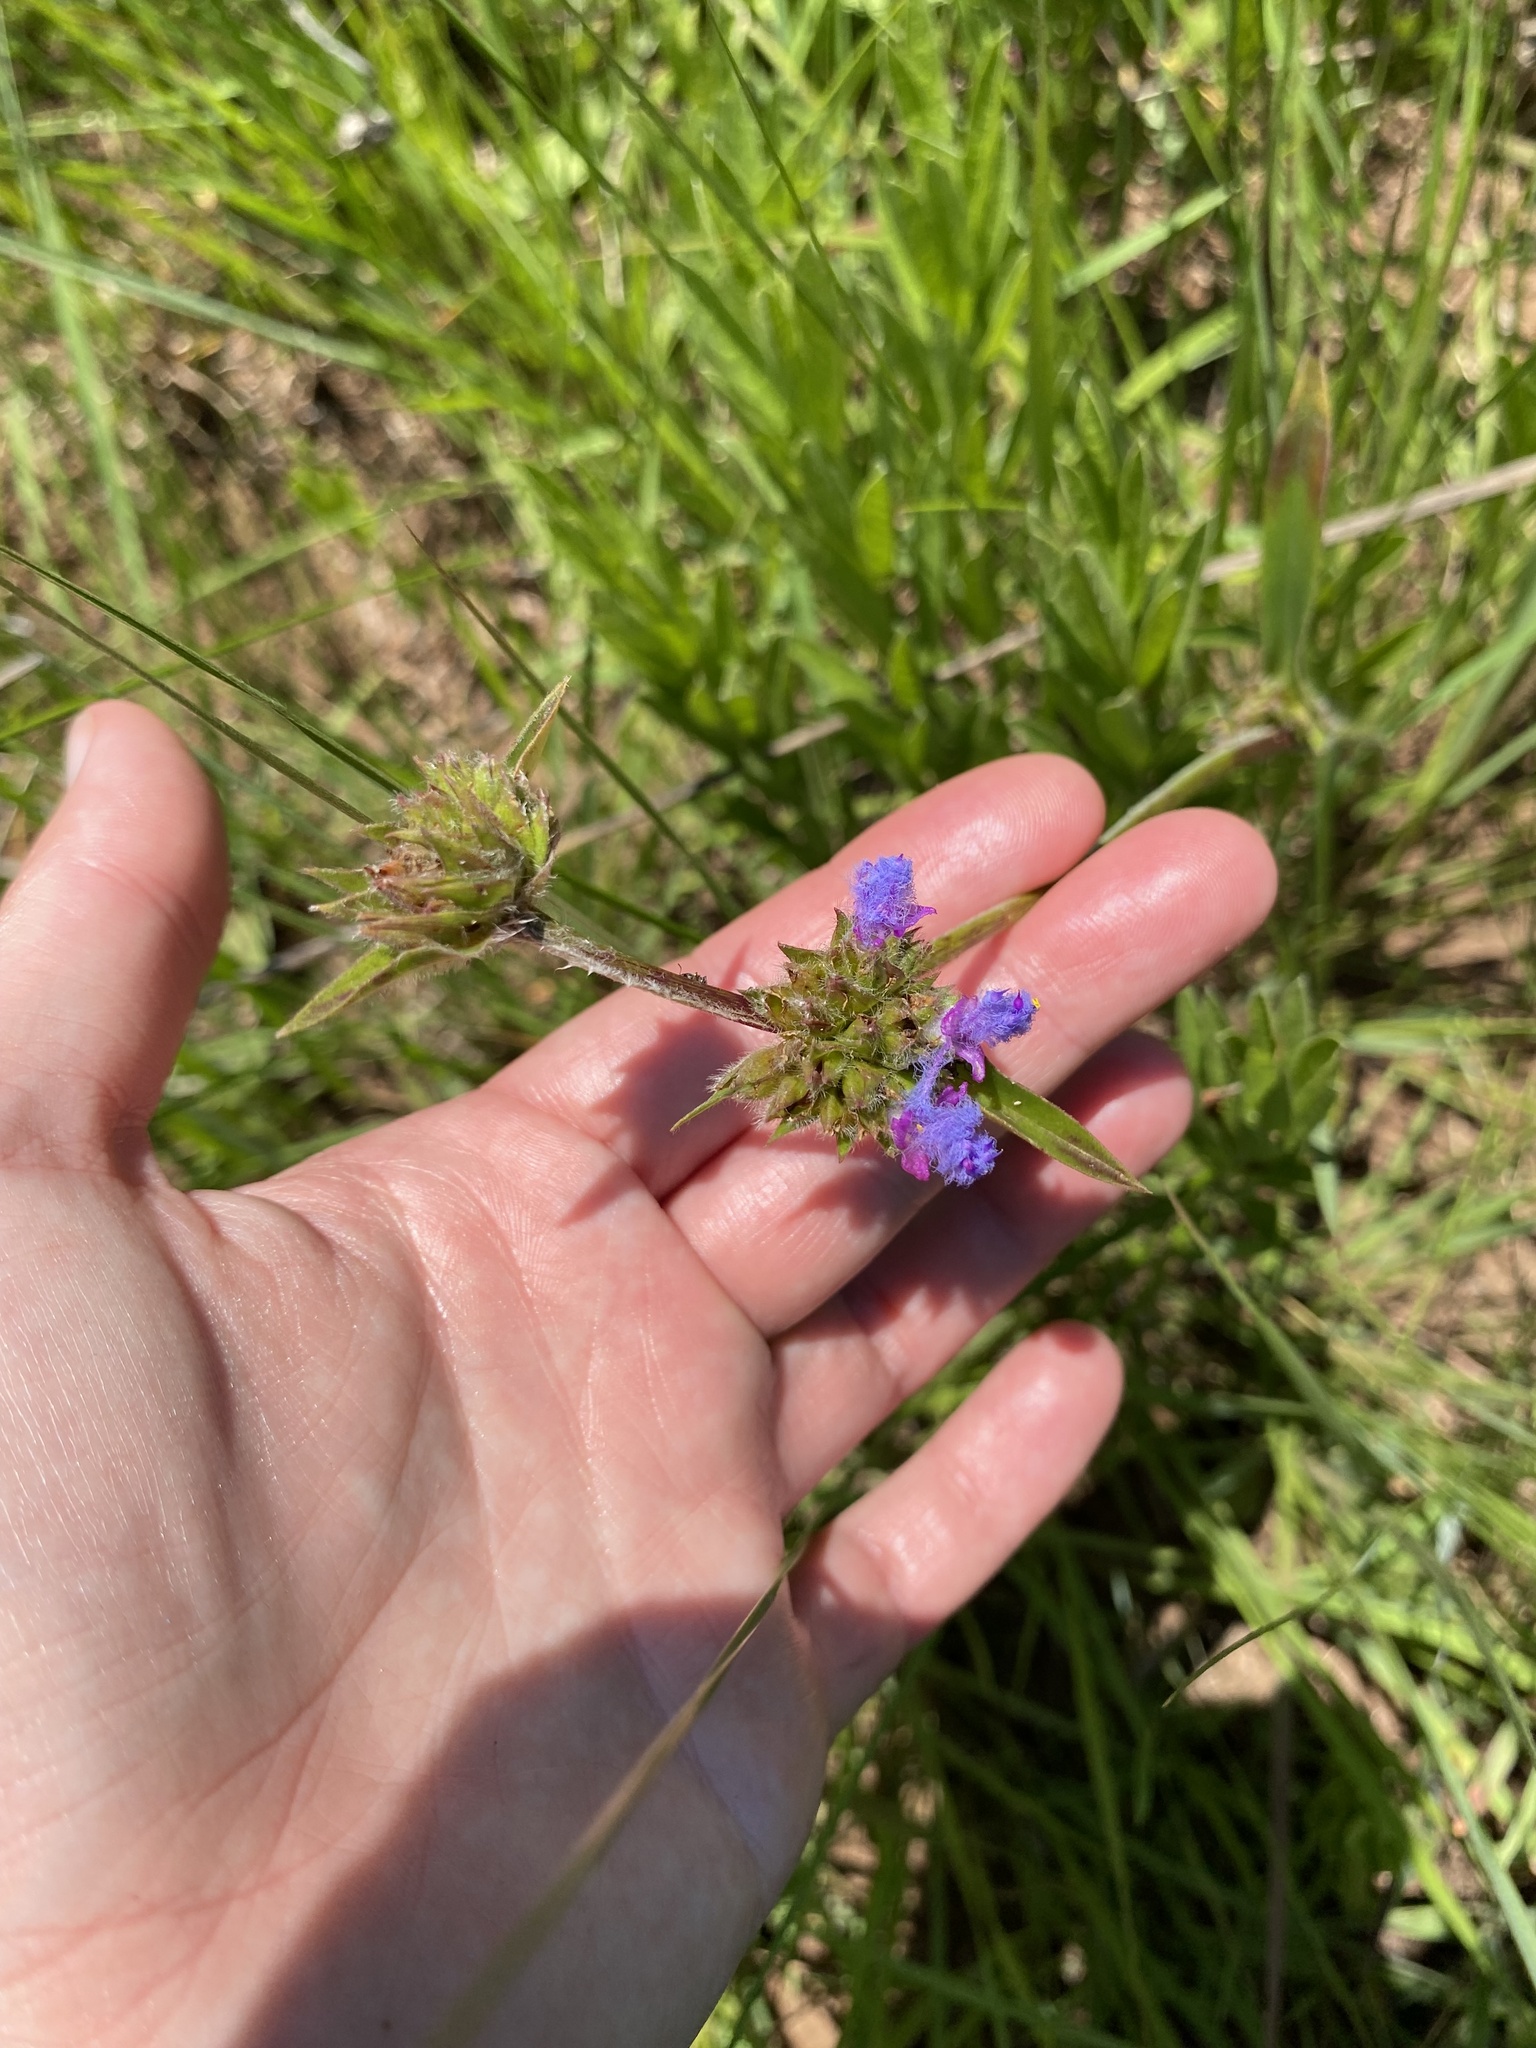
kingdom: Plantae
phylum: Tracheophyta
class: Liliopsida
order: Commelinales
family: Commelinaceae
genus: Cyanotis
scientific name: Cyanotis speciosa
